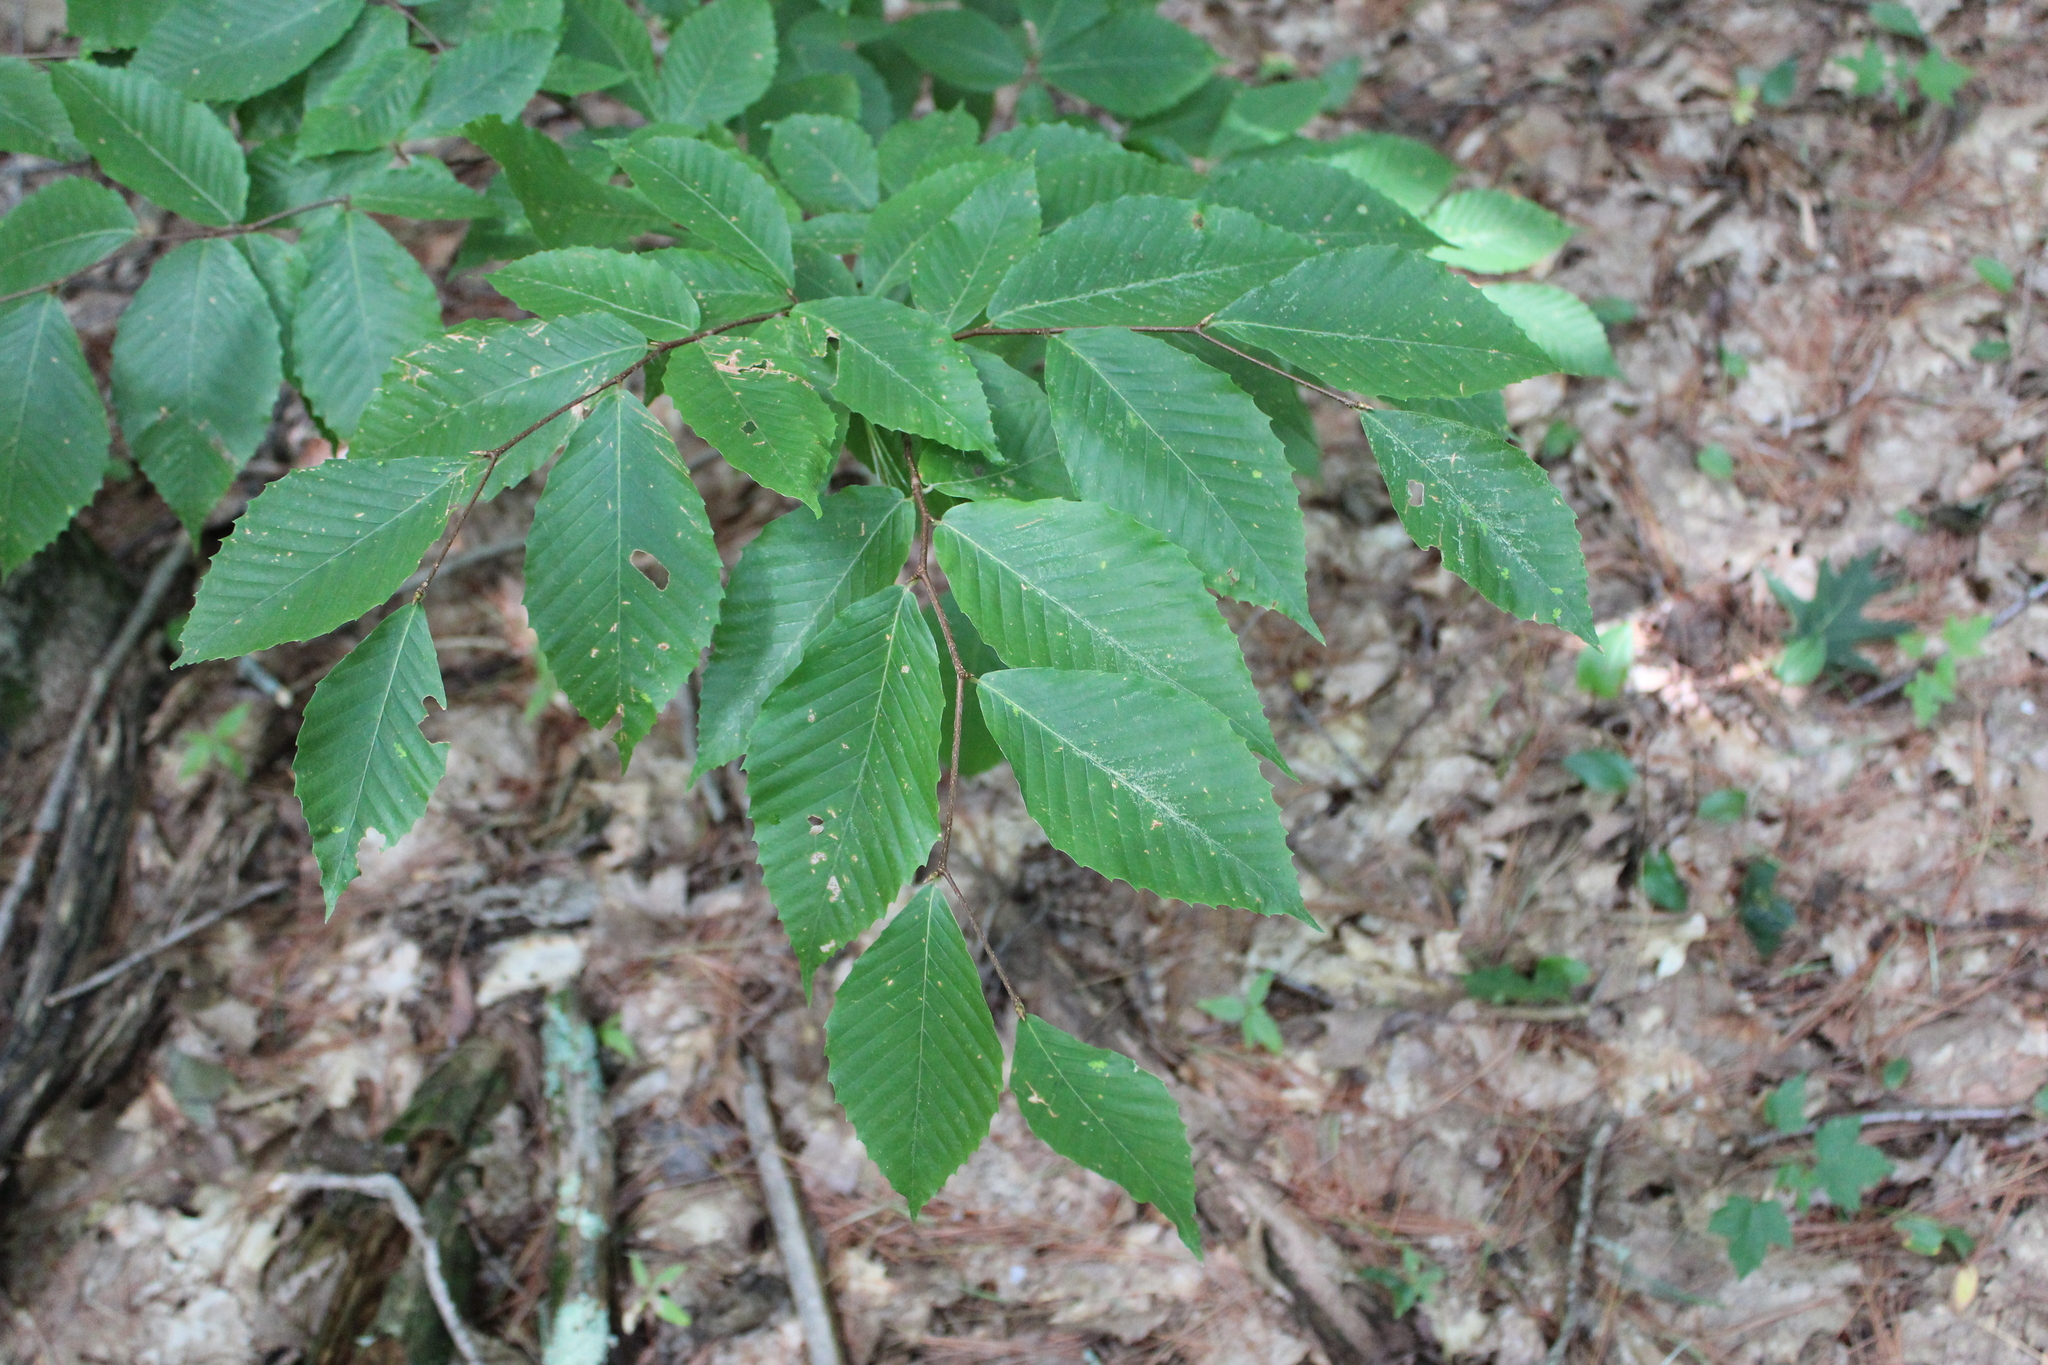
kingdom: Plantae
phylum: Tracheophyta
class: Magnoliopsida
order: Fagales
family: Fagaceae
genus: Fagus
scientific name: Fagus grandifolia
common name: American beech
